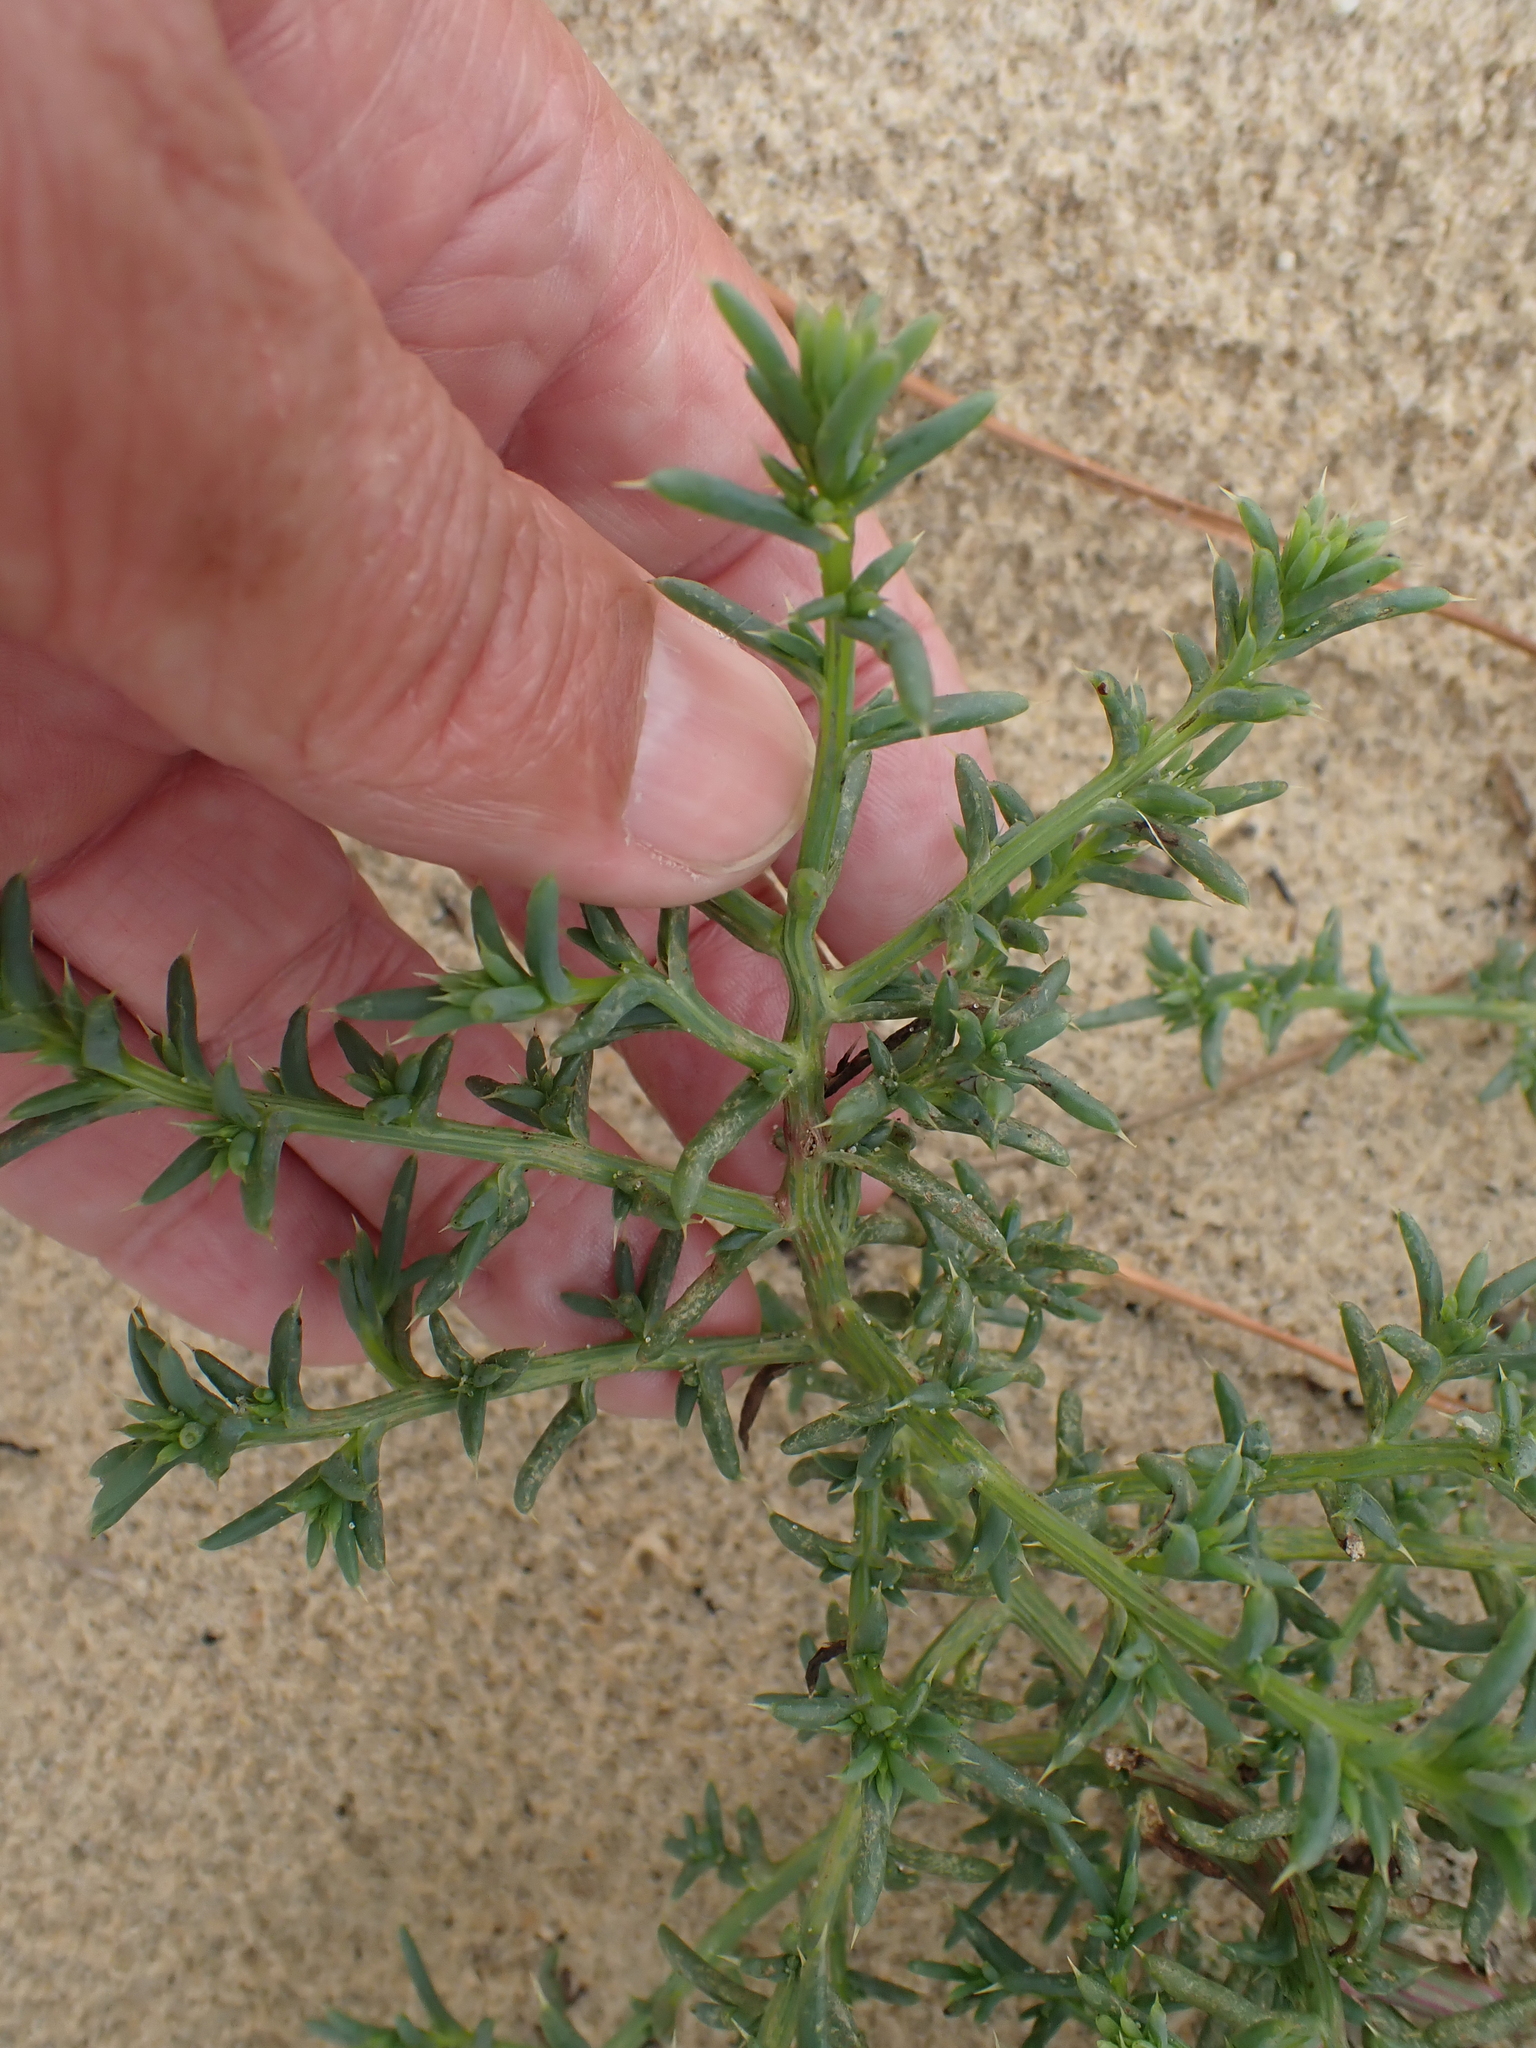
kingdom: Plantae
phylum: Tracheophyta
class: Magnoliopsida
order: Caryophyllales
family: Amaranthaceae
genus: Salsola
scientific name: Salsola kali
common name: Saltwort
